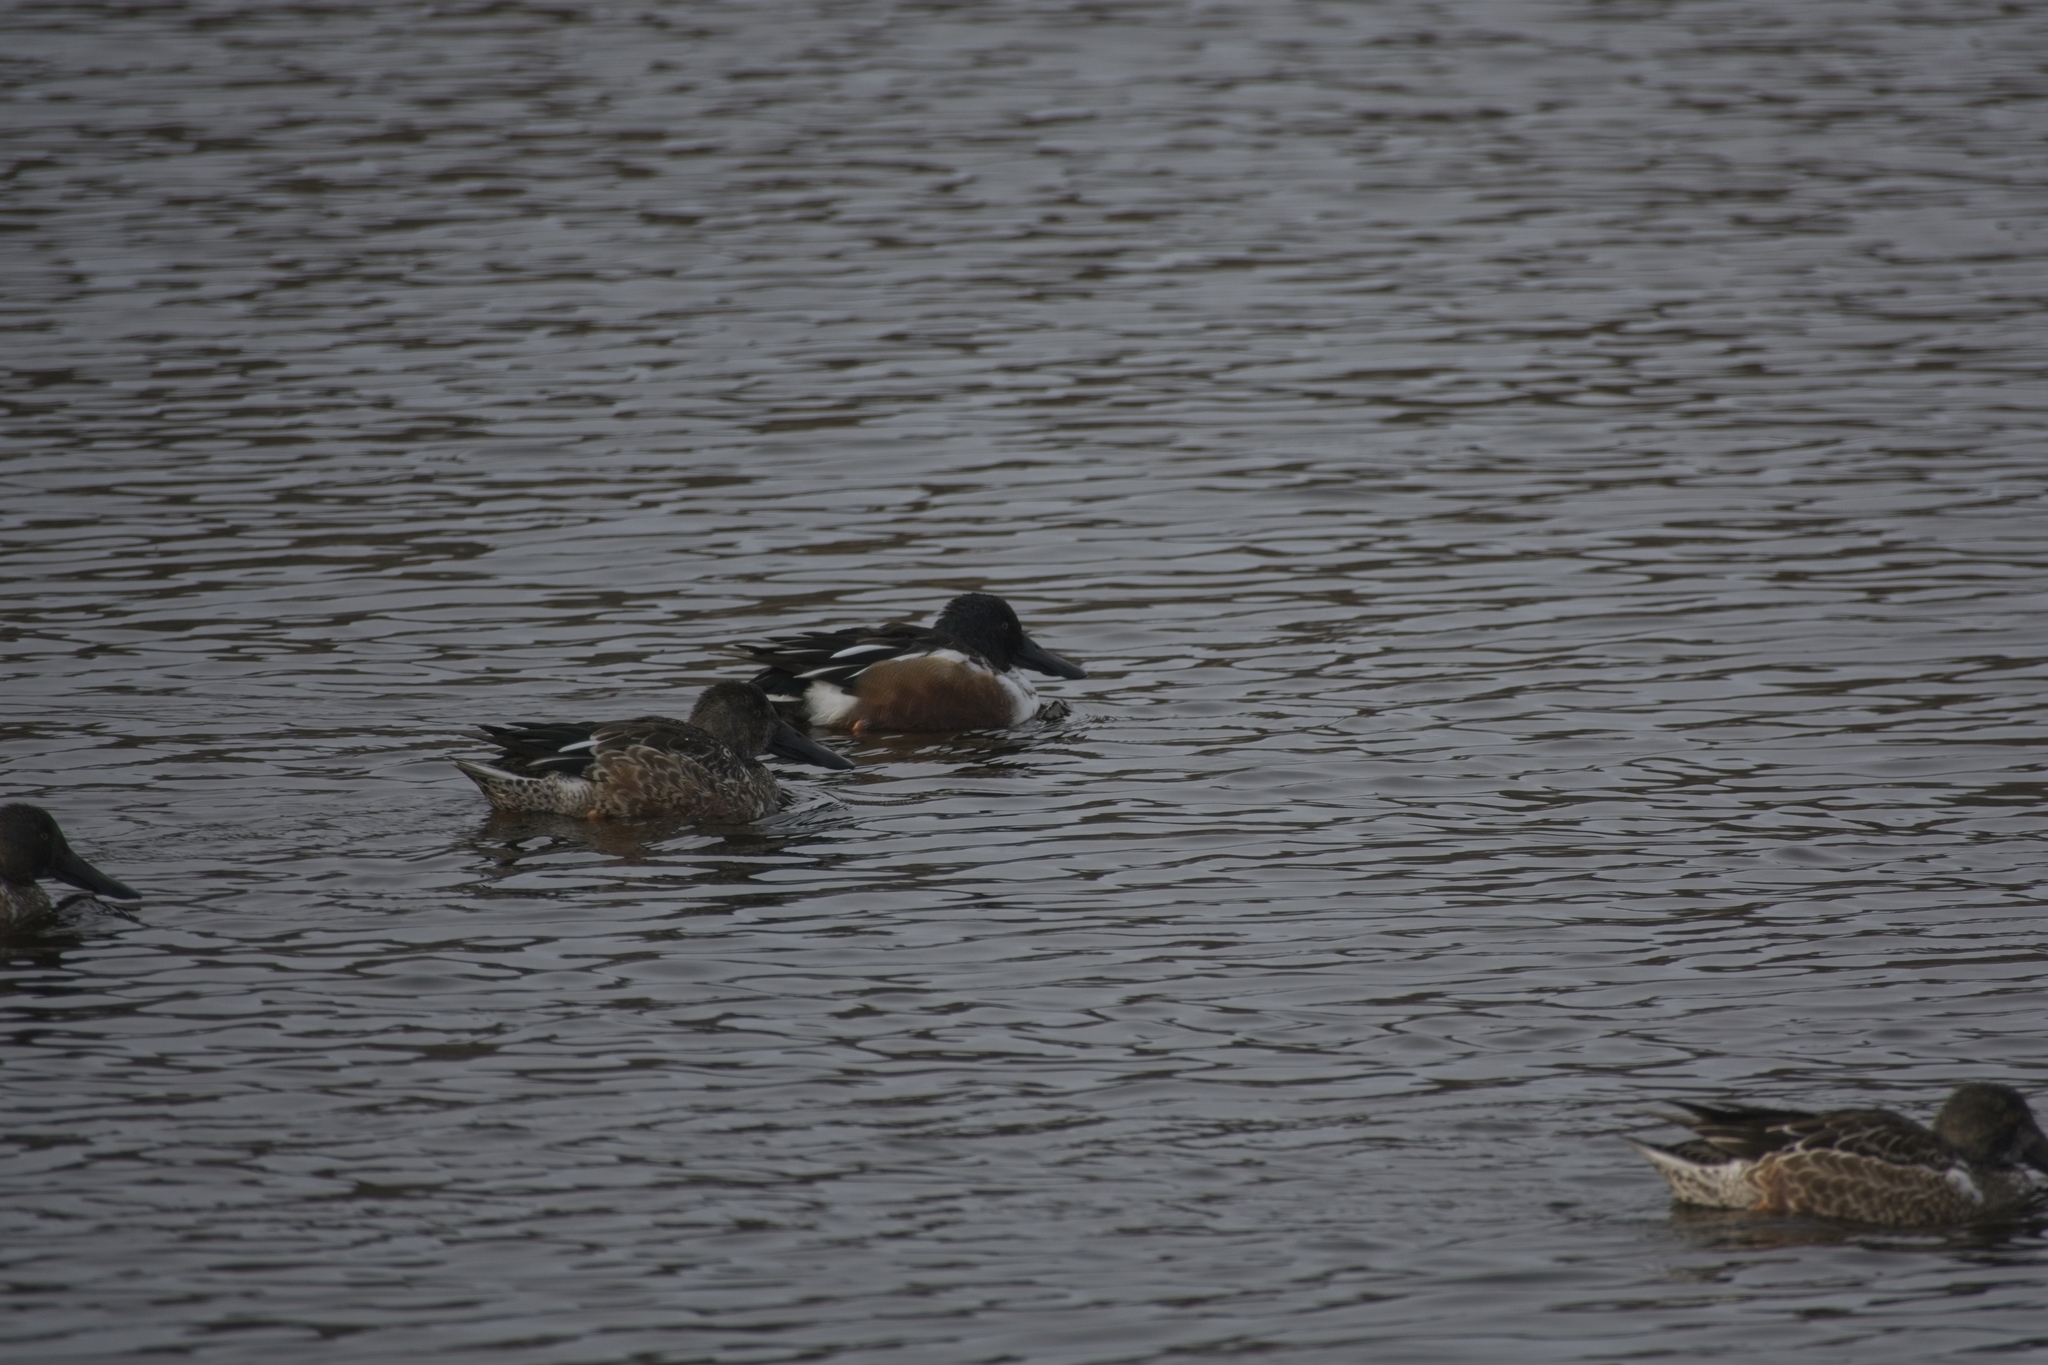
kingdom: Animalia
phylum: Chordata
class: Aves
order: Anseriformes
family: Anatidae
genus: Spatula
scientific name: Spatula clypeata
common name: Northern shoveler
